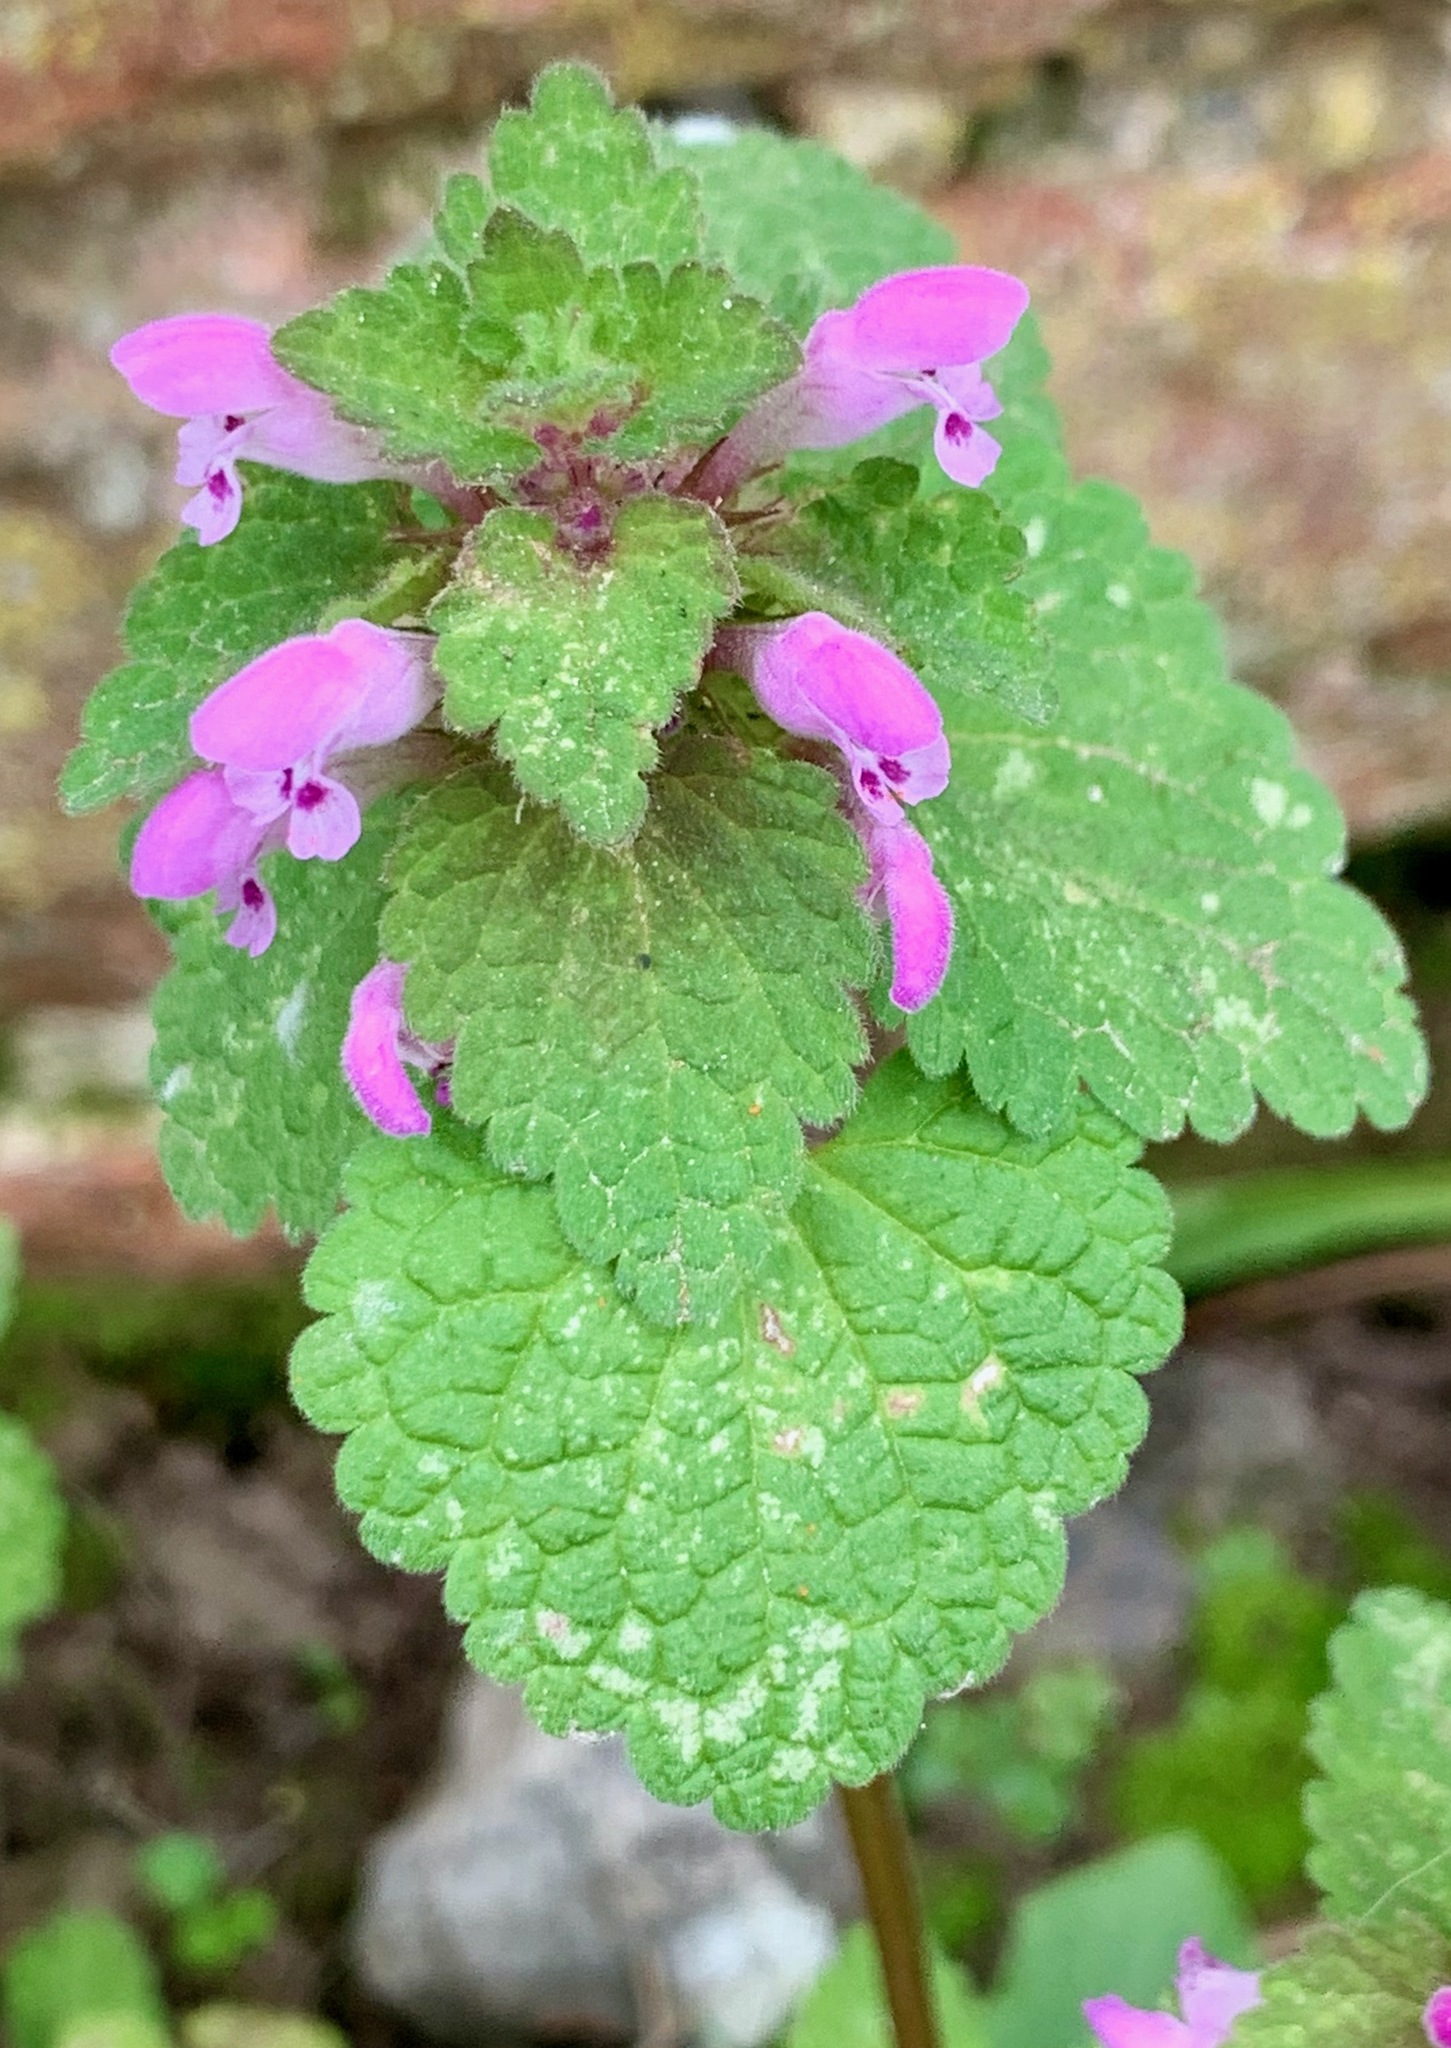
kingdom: Plantae
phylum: Tracheophyta
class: Magnoliopsida
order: Lamiales
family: Lamiaceae
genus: Lamium
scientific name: Lamium purpureum
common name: Red dead-nettle
